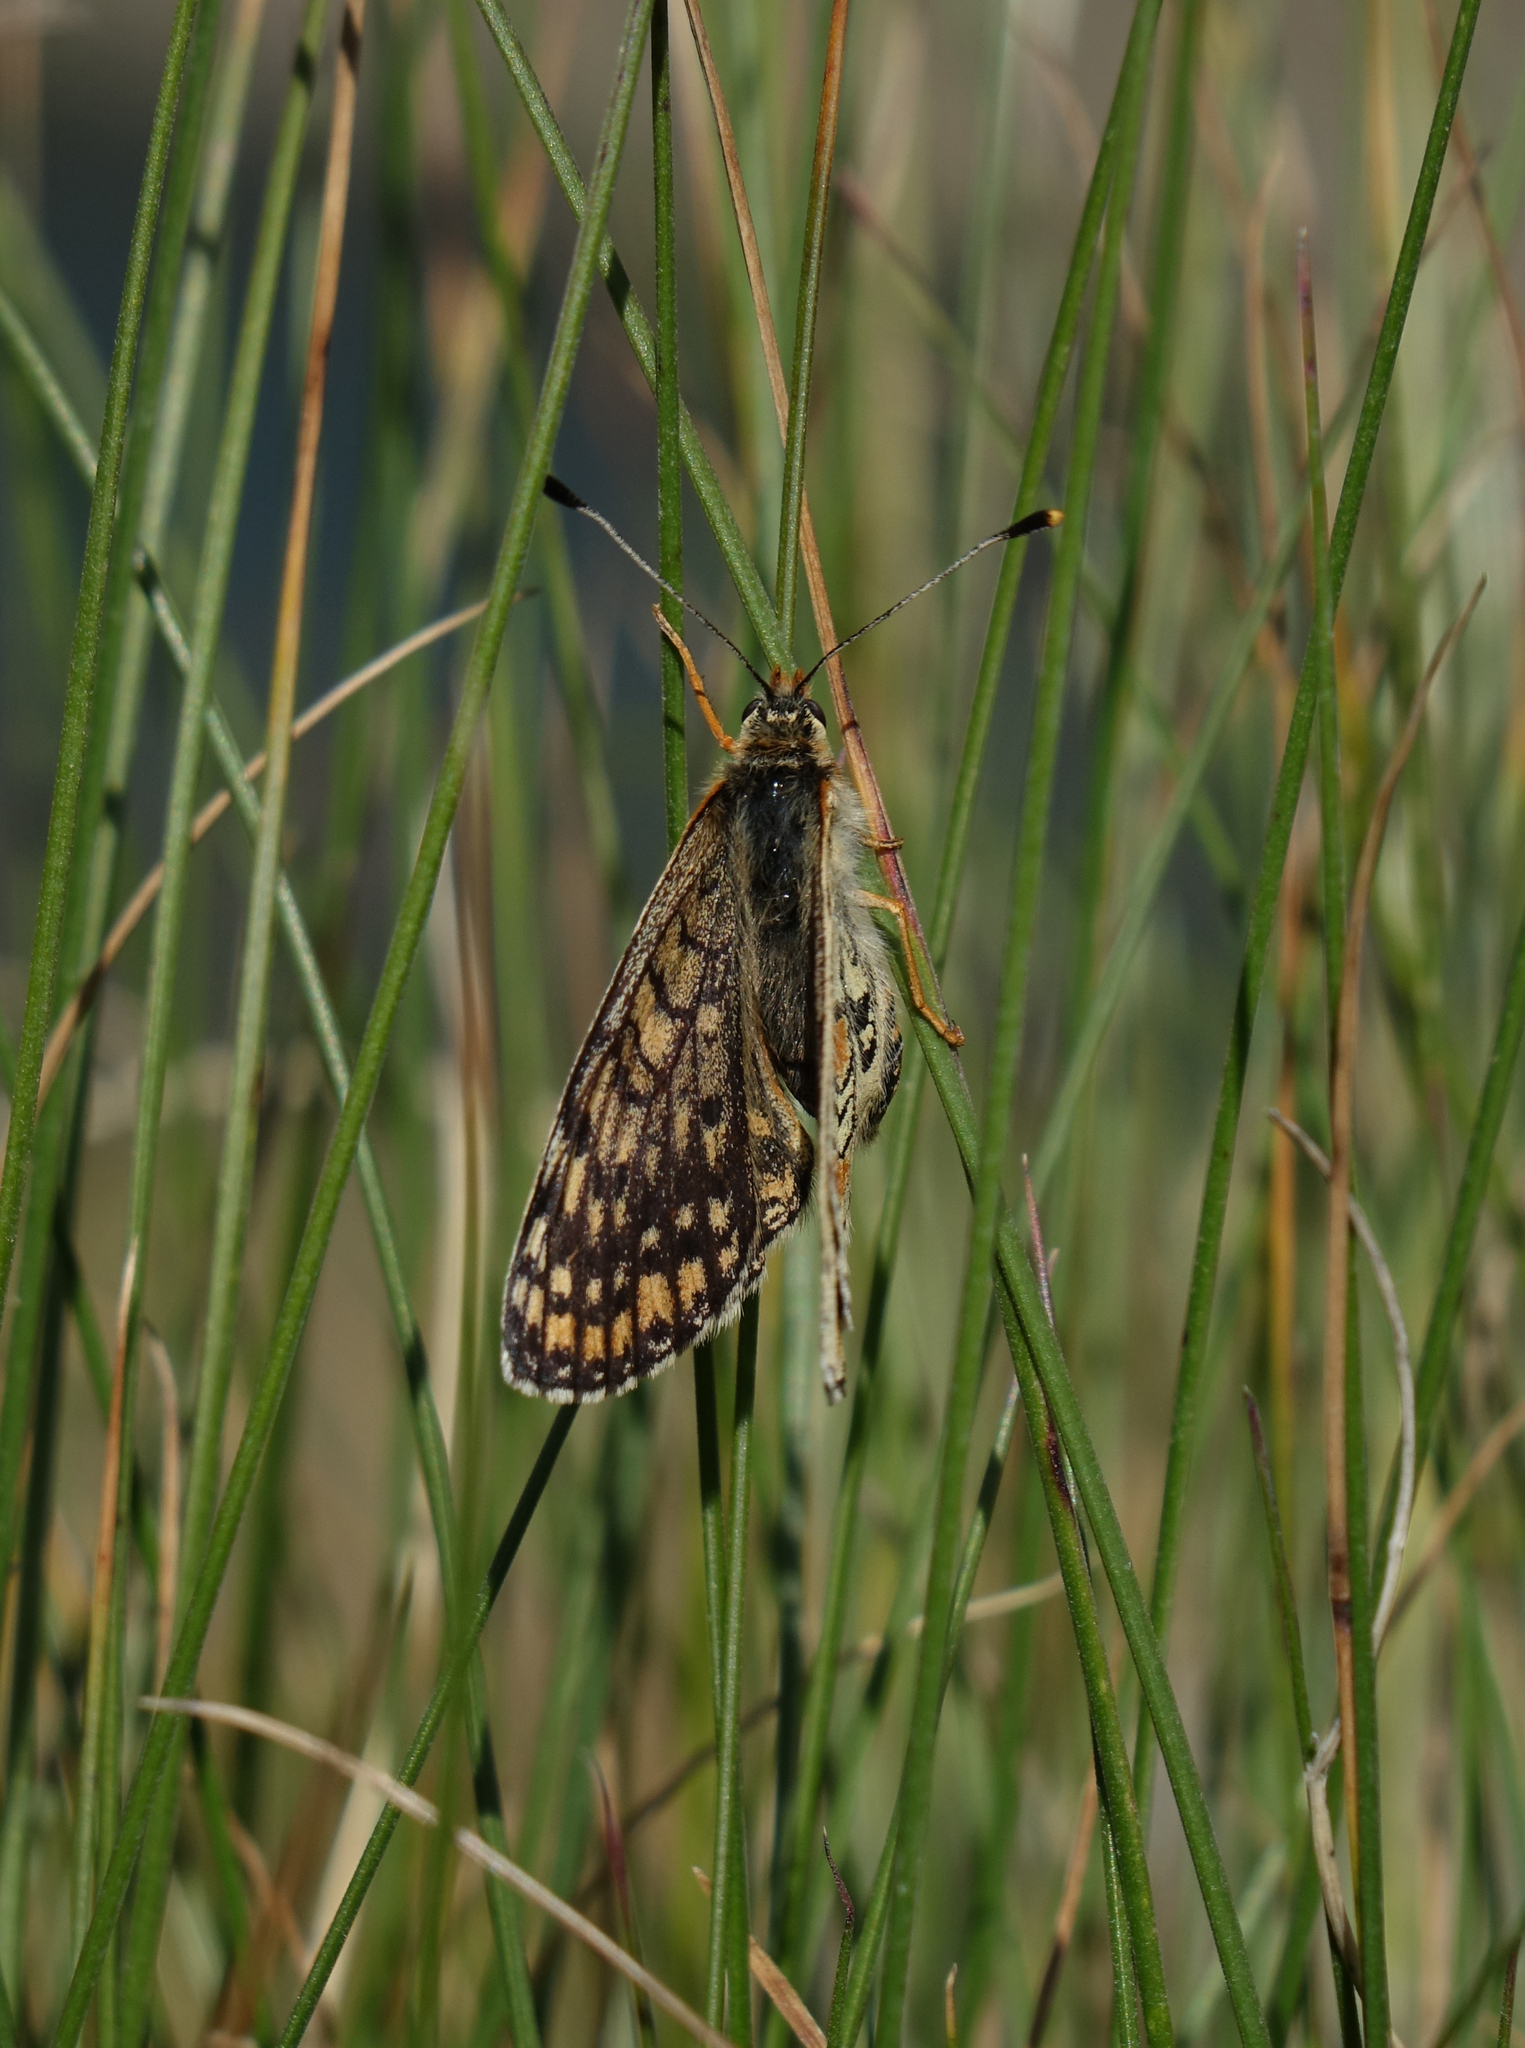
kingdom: Animalia
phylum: Arthropoda
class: Insecta
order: Lepidoptera
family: Nymphalidae
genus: Melitaea
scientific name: Melitaea cinxia
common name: Glanville fritillary
